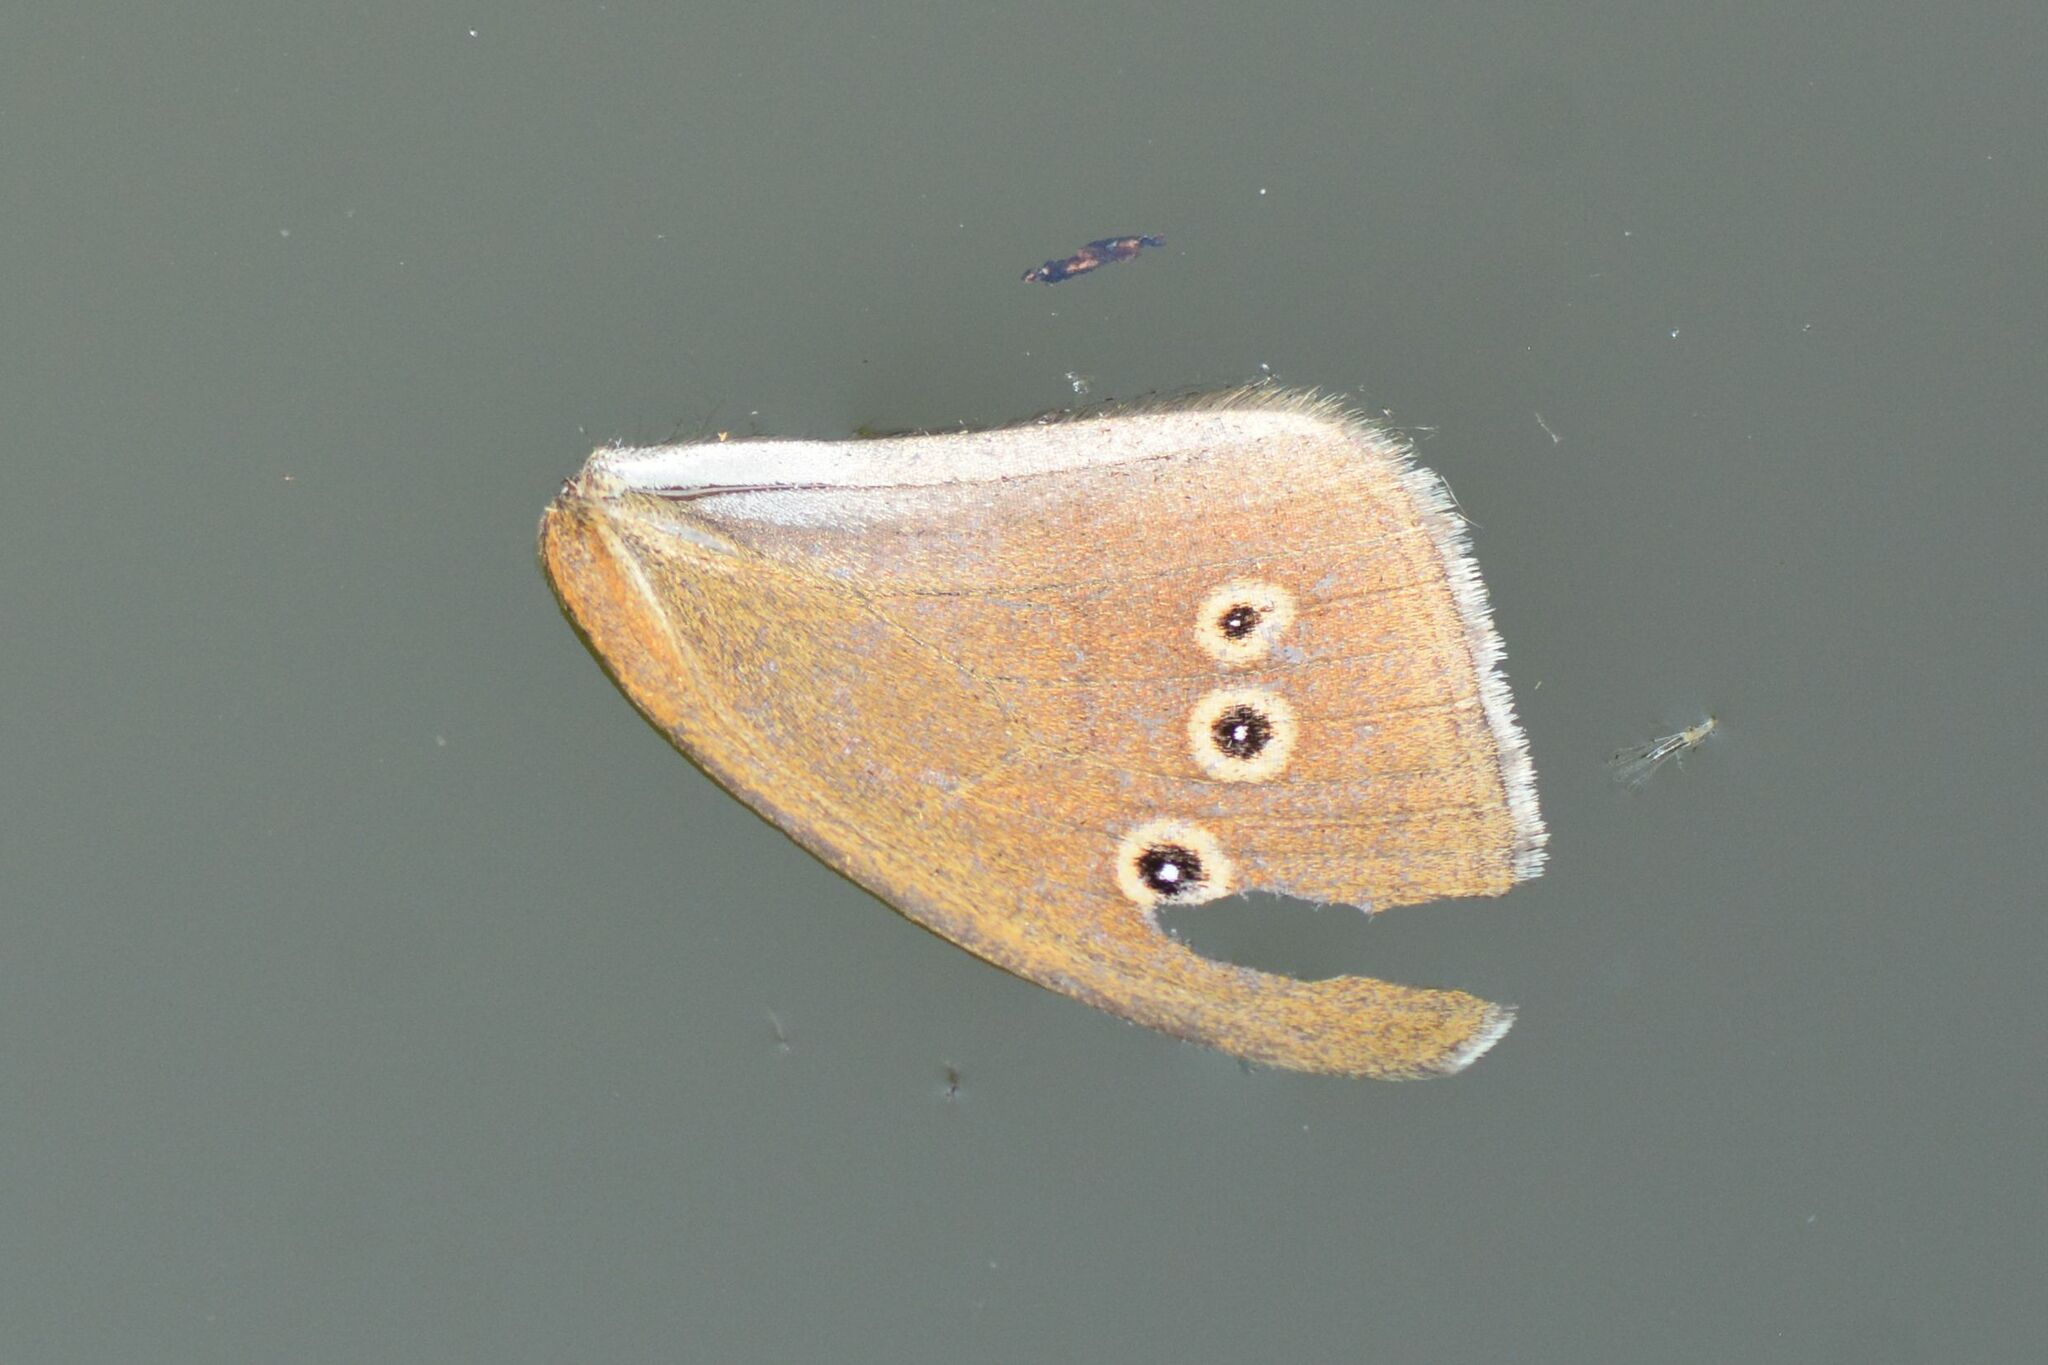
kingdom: Animalia
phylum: Arthropoda
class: Insecta
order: Lepidoptera
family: Nymphalidae
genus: Aphantopus
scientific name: Aphantopus hyperantus
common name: Ringlet
